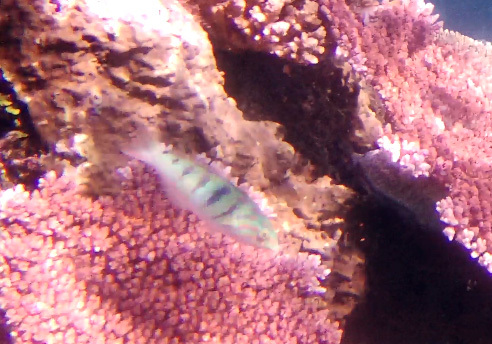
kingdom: Animalia
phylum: Chordata
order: Perciformes
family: Labridae
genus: Thalassoma
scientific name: Thalassoma hardwicke
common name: Sixbar wrasse
